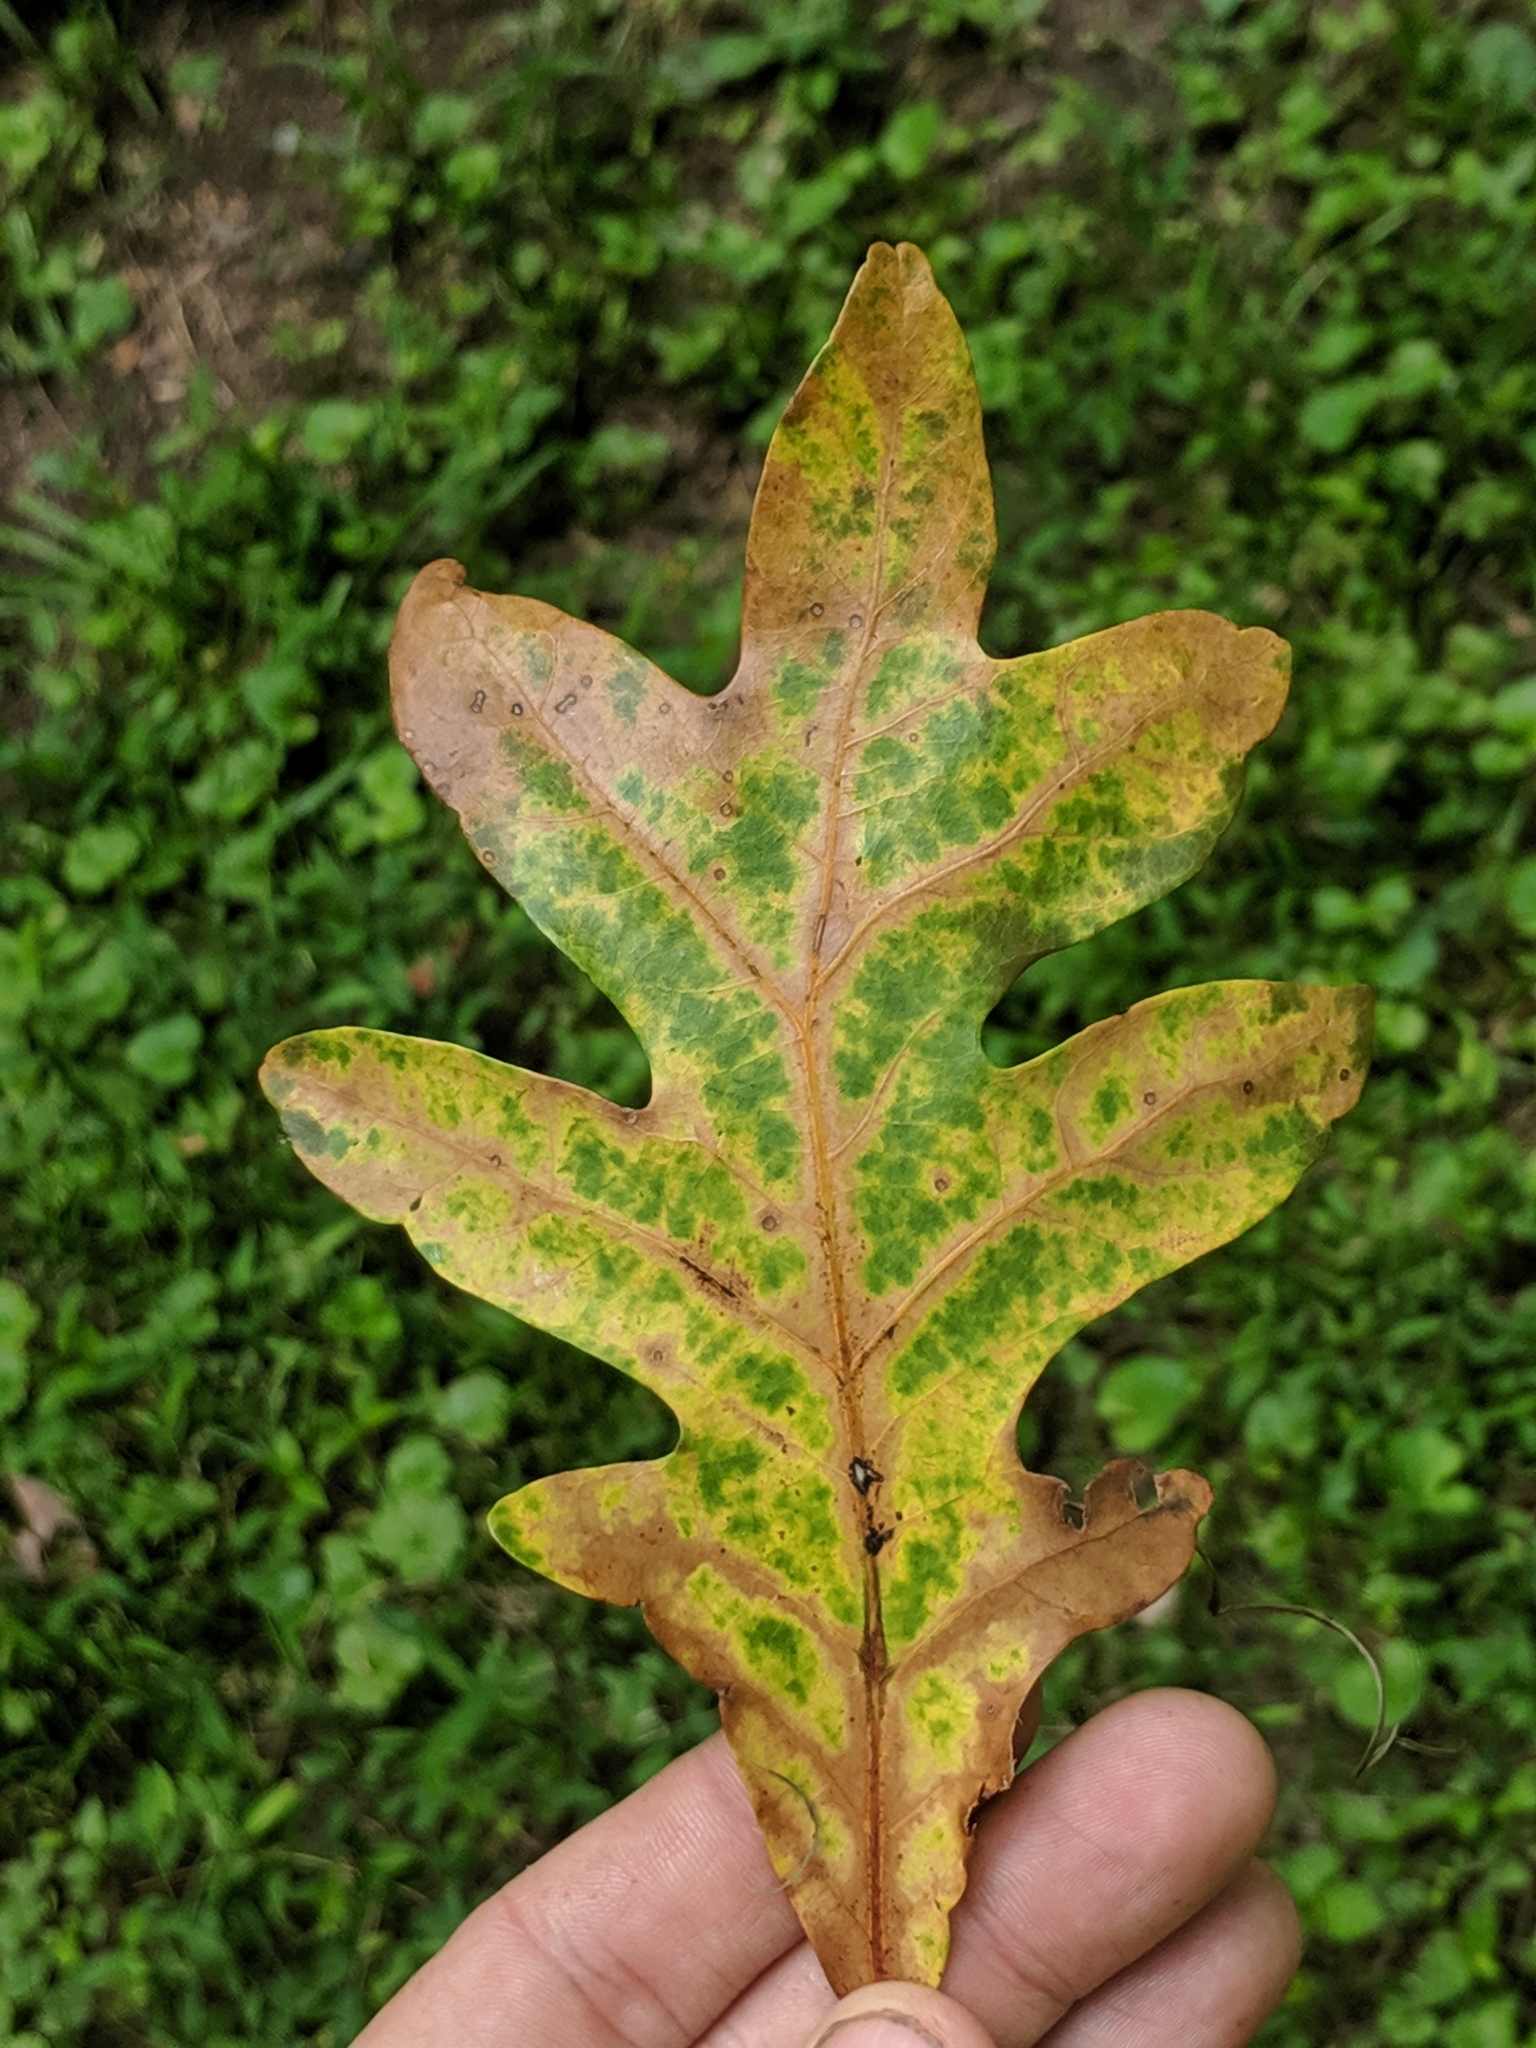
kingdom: Plantae
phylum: Tracheophyta
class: Magnoliopsida
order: Fagales
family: Fagaceae
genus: Quercus
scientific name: Quercus alba
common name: White oak
